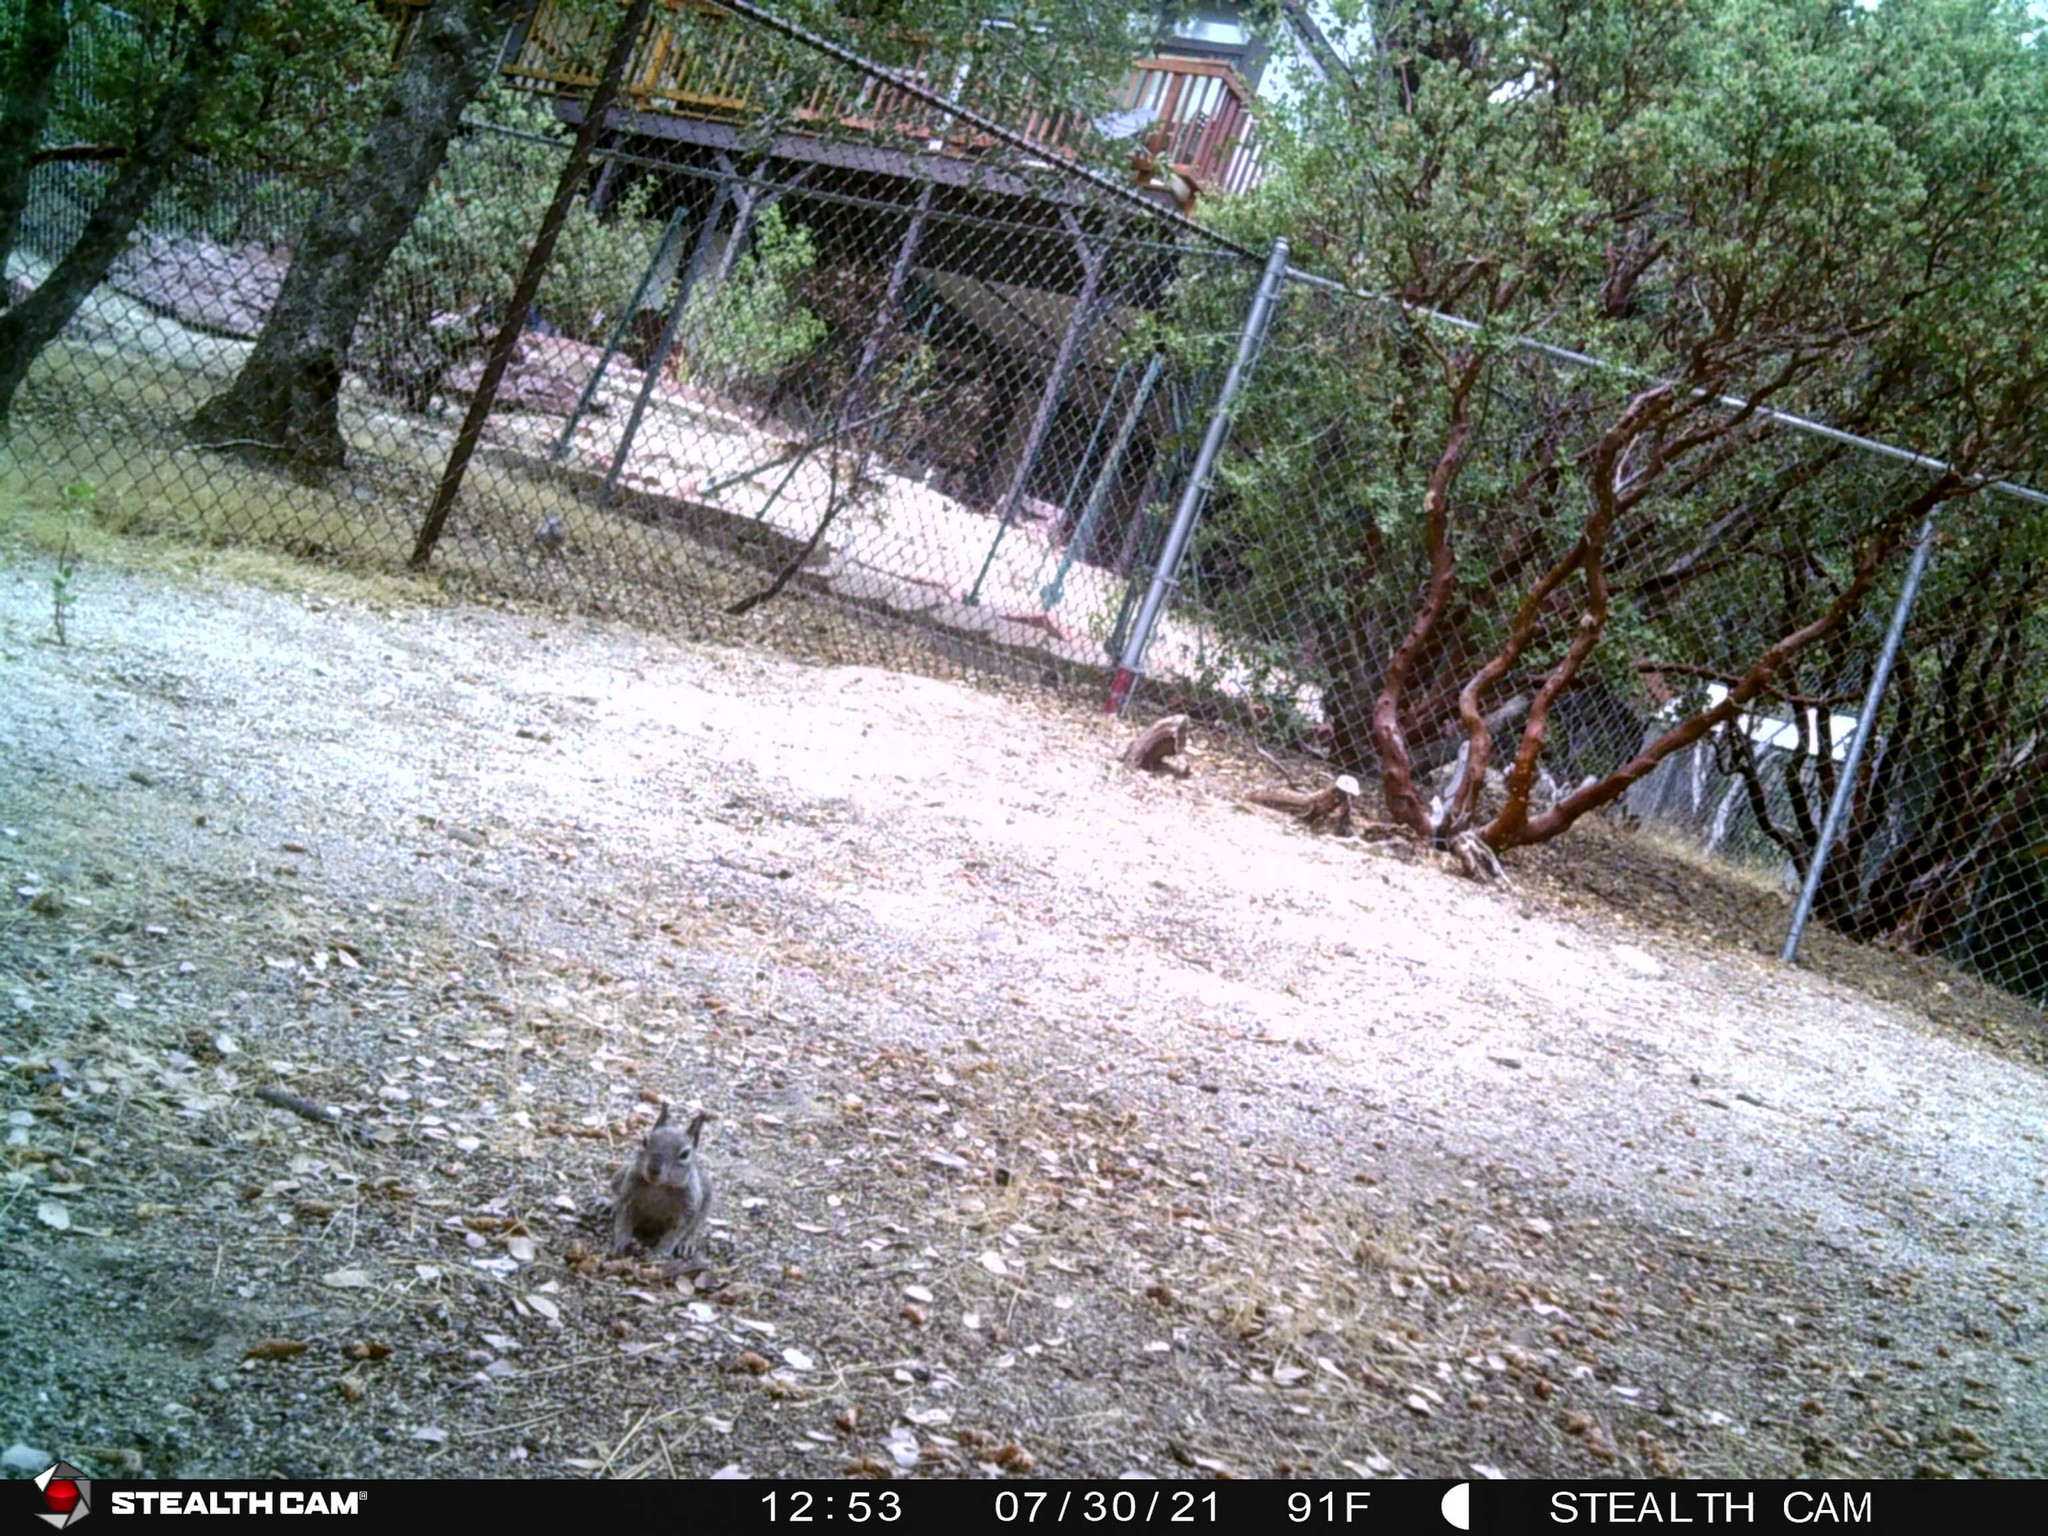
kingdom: Animalia
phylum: Chordata
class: Mammalia
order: Rodentia
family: Sciuridae
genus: Otospermophilus
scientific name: Otospermophilus beecheyi
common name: California ground squirrel
